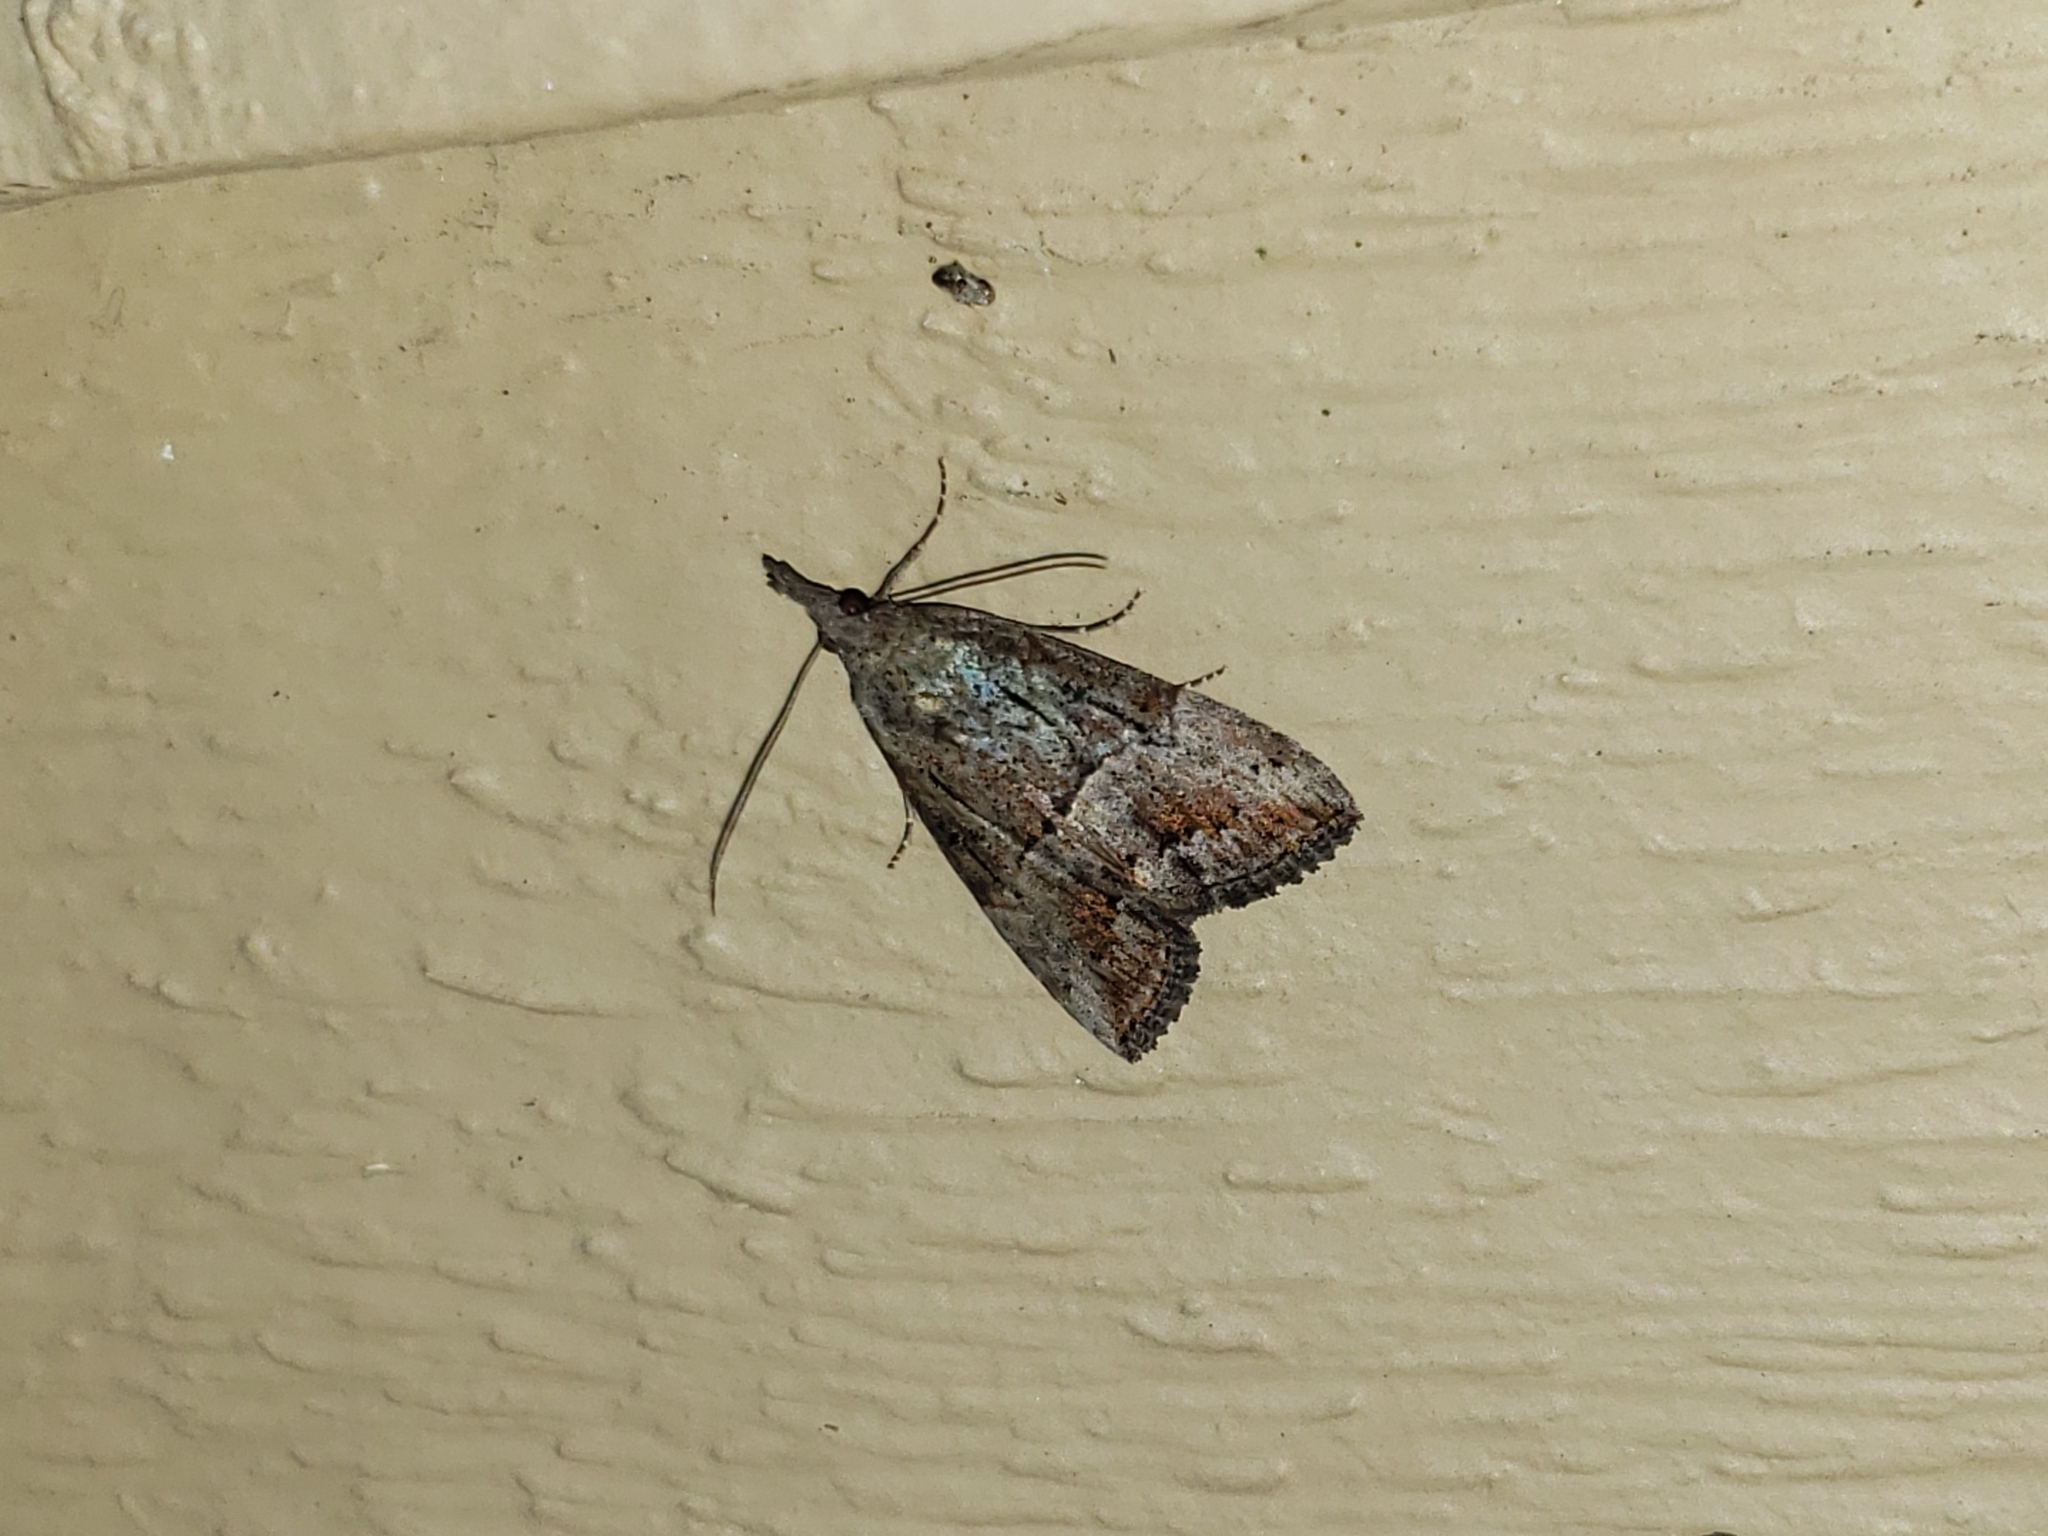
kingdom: Animalia
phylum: Arthropoda
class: Insecta
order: Lepidoptera
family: Erebidae
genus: Hypena
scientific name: Hypena scabra
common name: Green cloverworm
